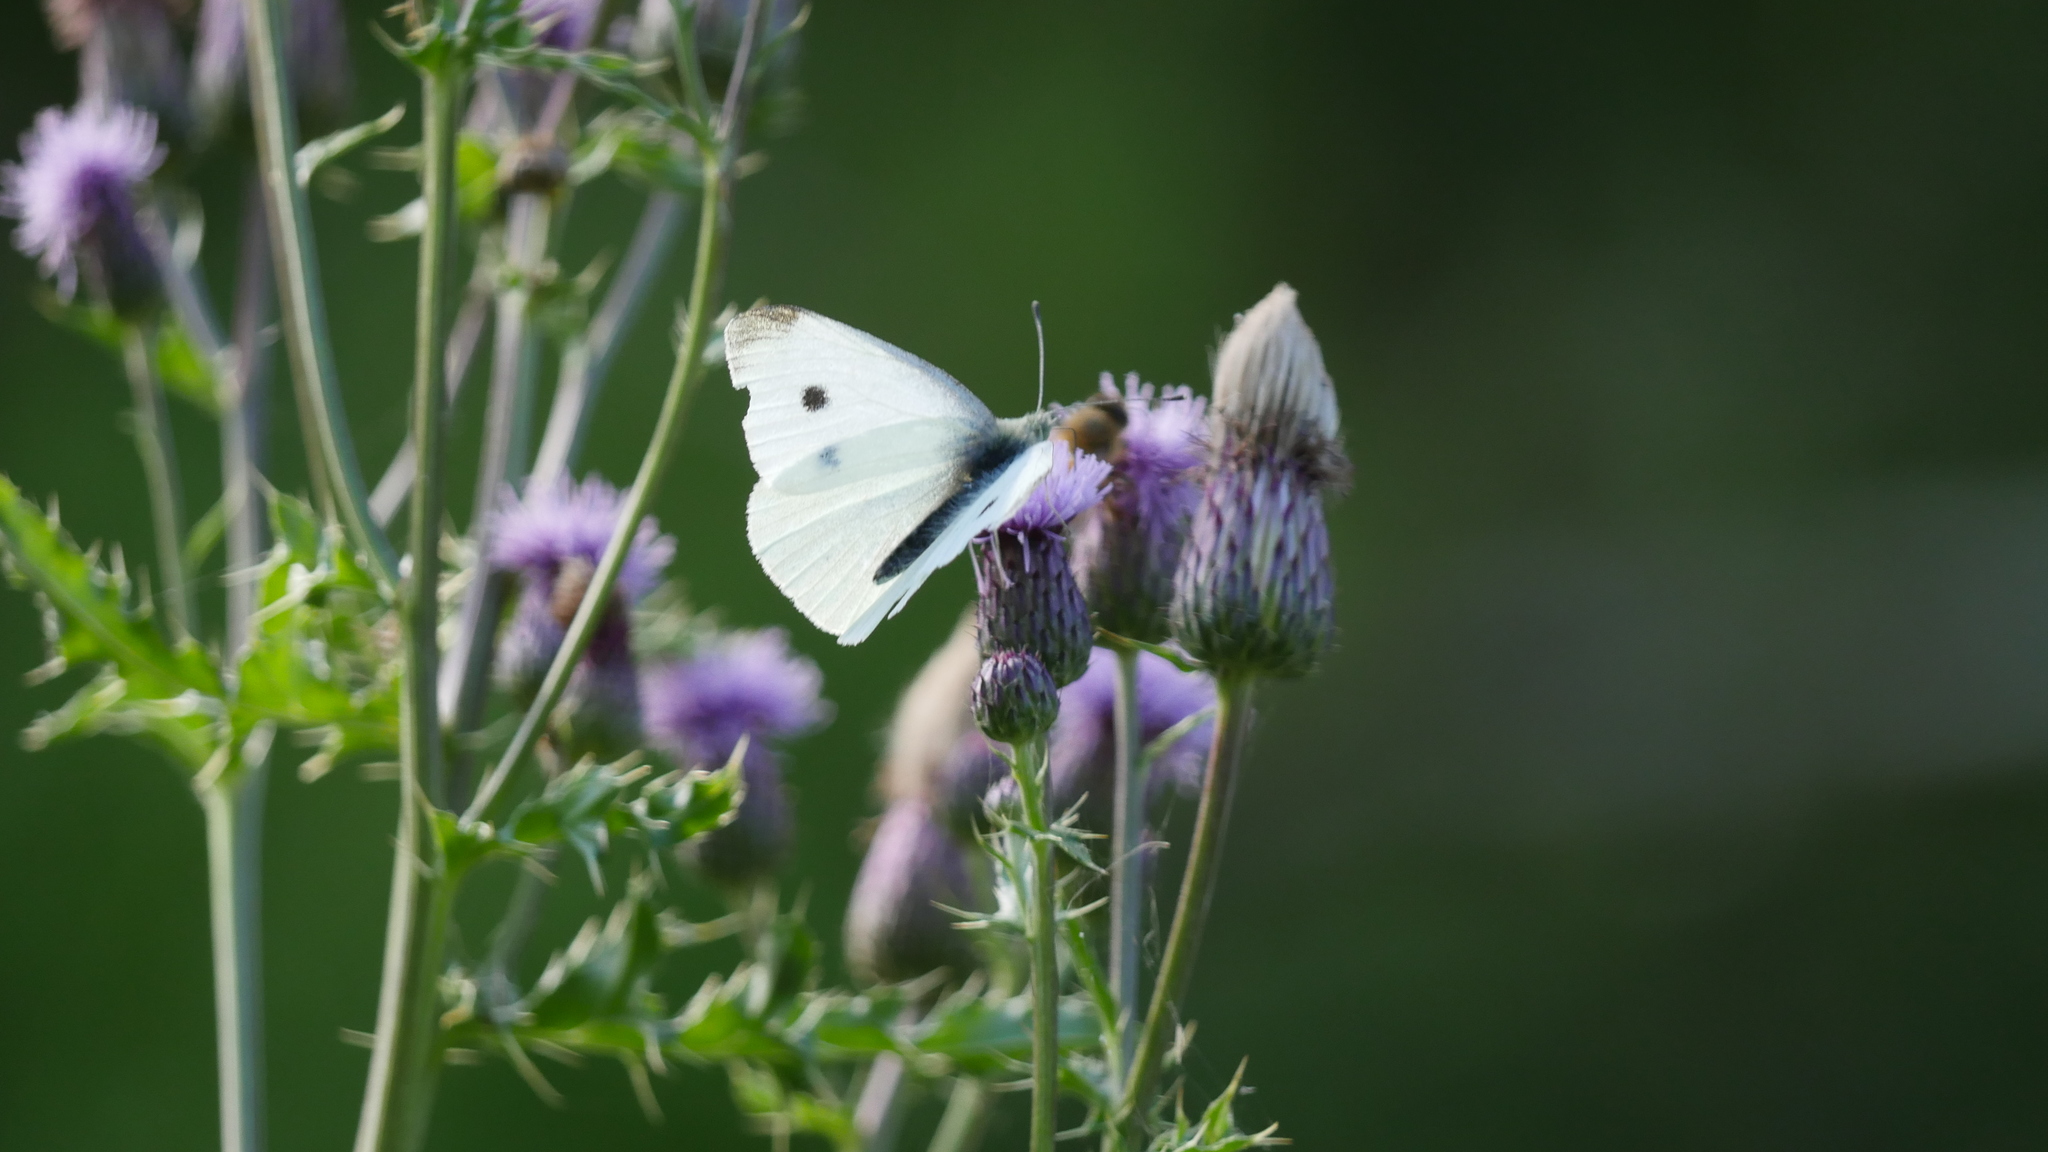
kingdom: Animalia
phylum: Arthropoda
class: Insecta
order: Lepidoptera
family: Pieridae
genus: Pieris
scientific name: Pieris rapae
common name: Small white
